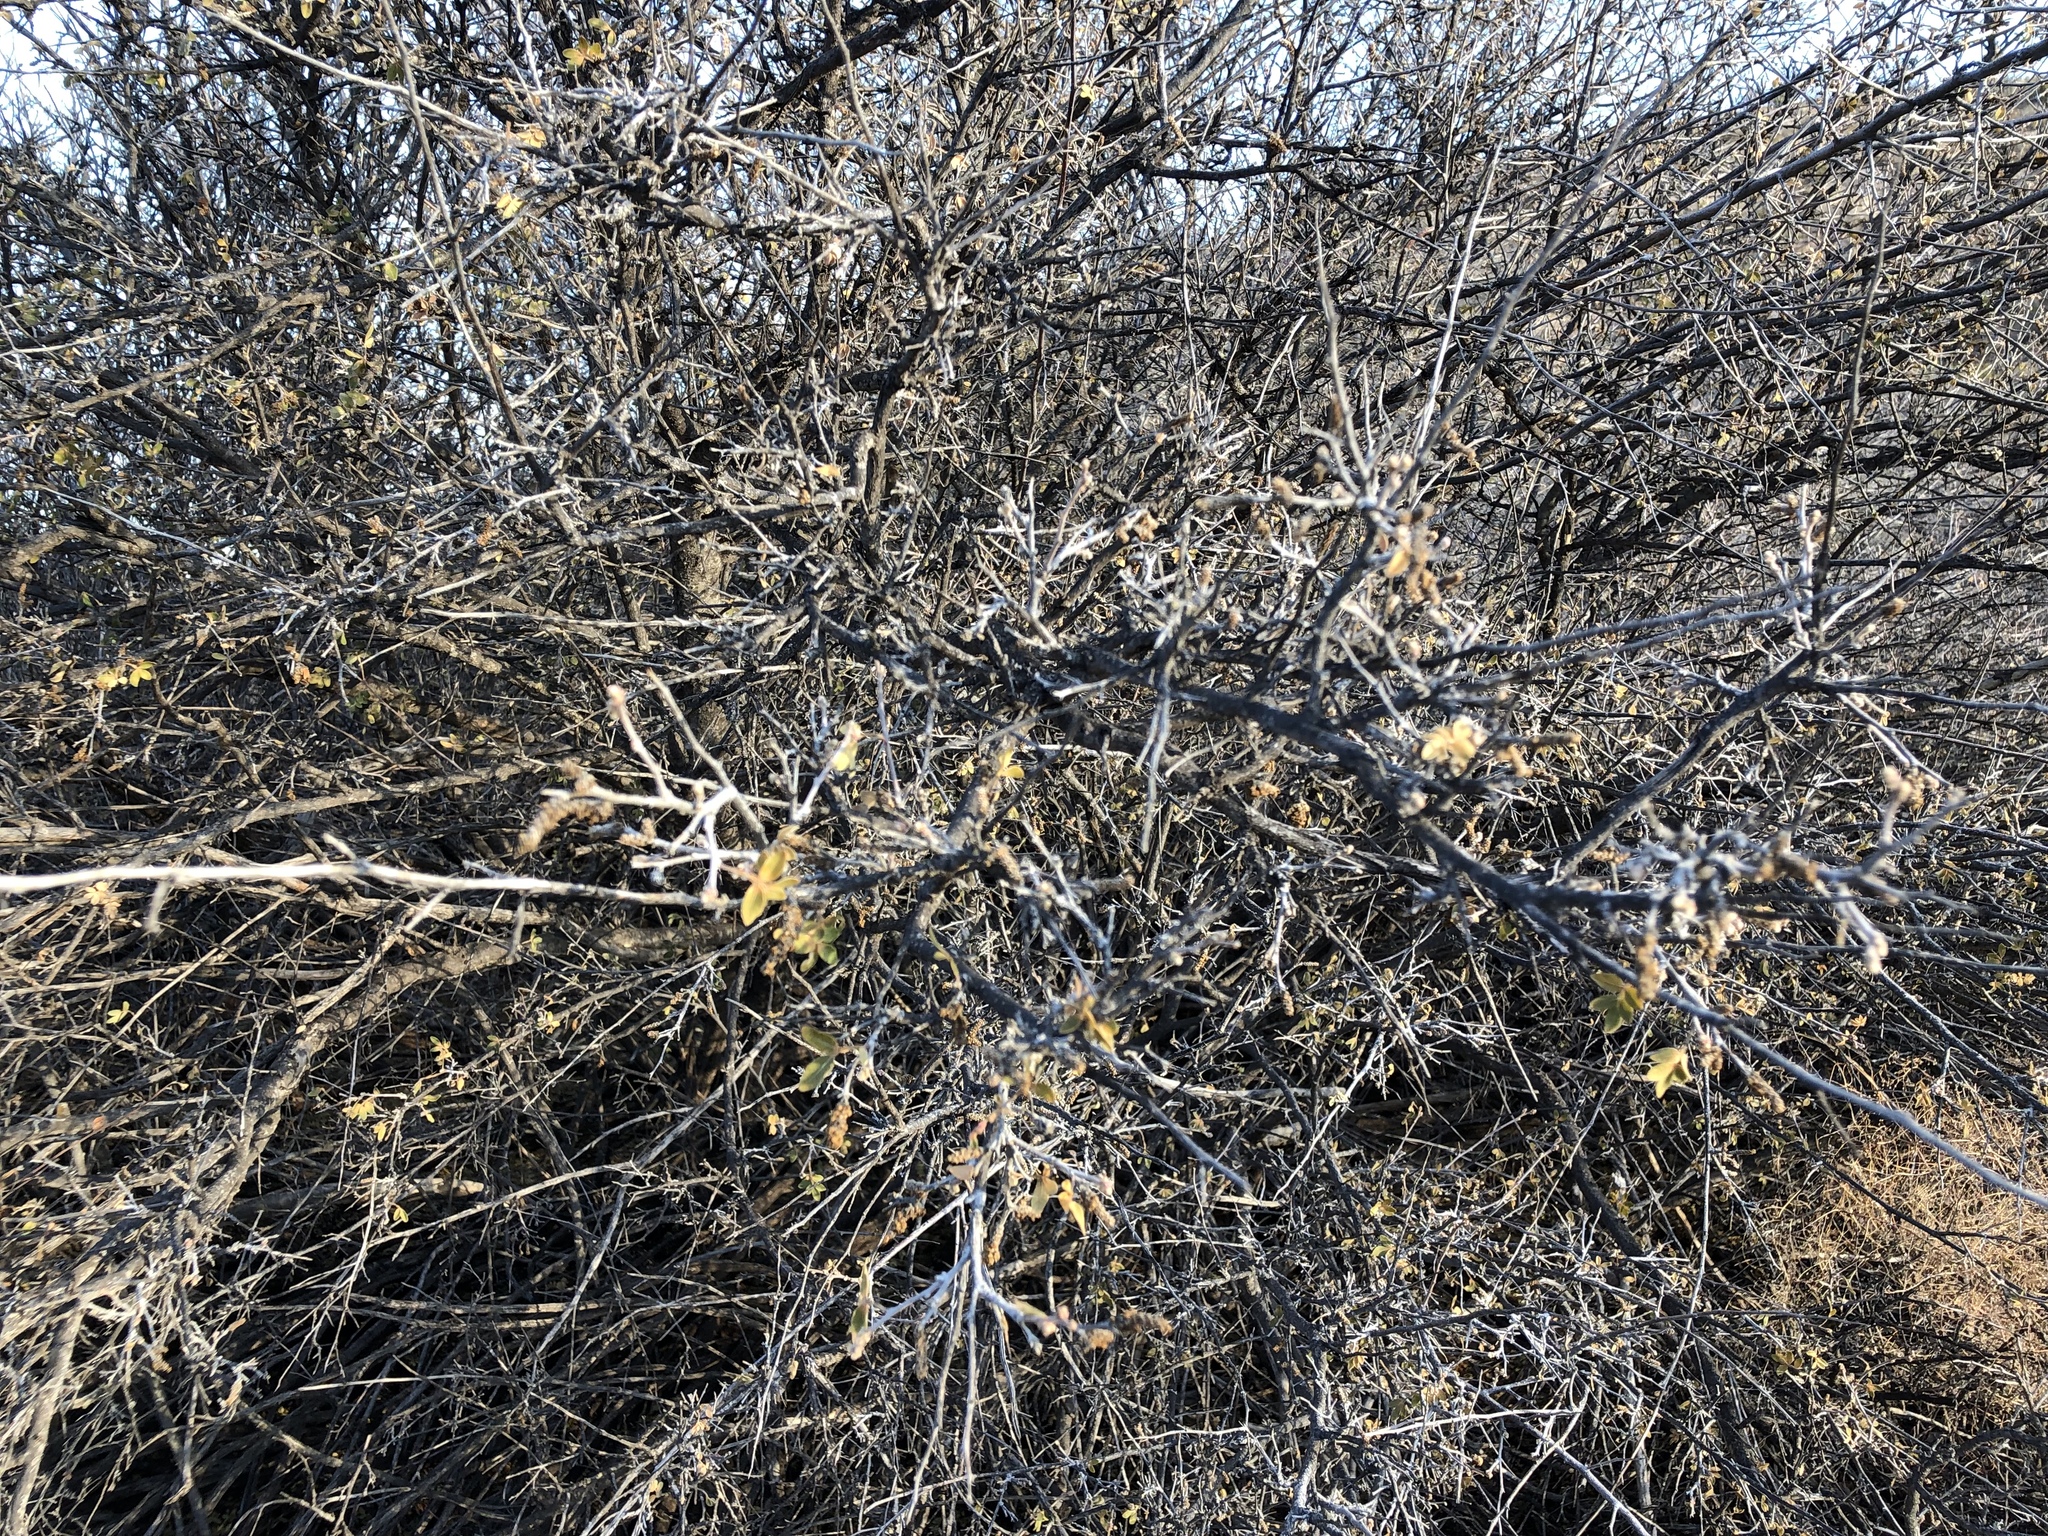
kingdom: Plantae
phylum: Tracheophyta
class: Magnoliopsida
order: Sapindales
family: Anacardiaceae
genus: Rhus
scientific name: Rhus microphylla
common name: Desert sumac
